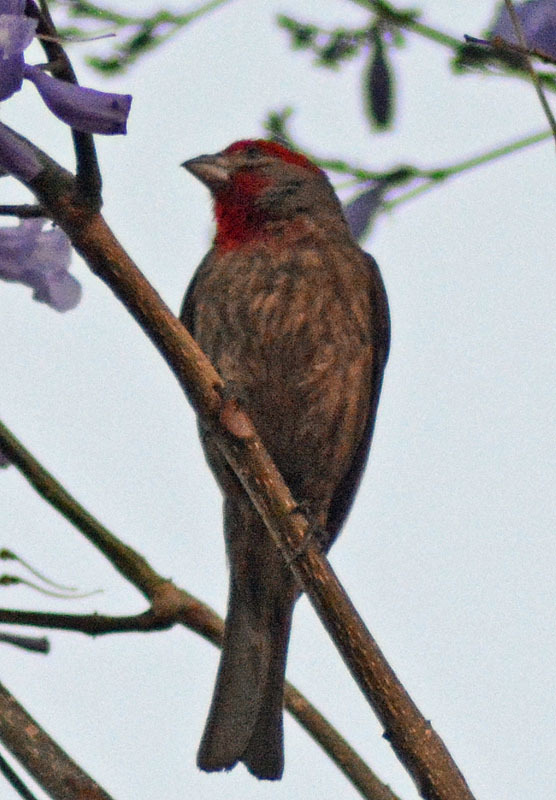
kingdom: Animalia
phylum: Chordata
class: Aves
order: Passeriformes
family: Fringillidae
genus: Haemorhous
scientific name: Haemorhous mexicanus
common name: House finch
